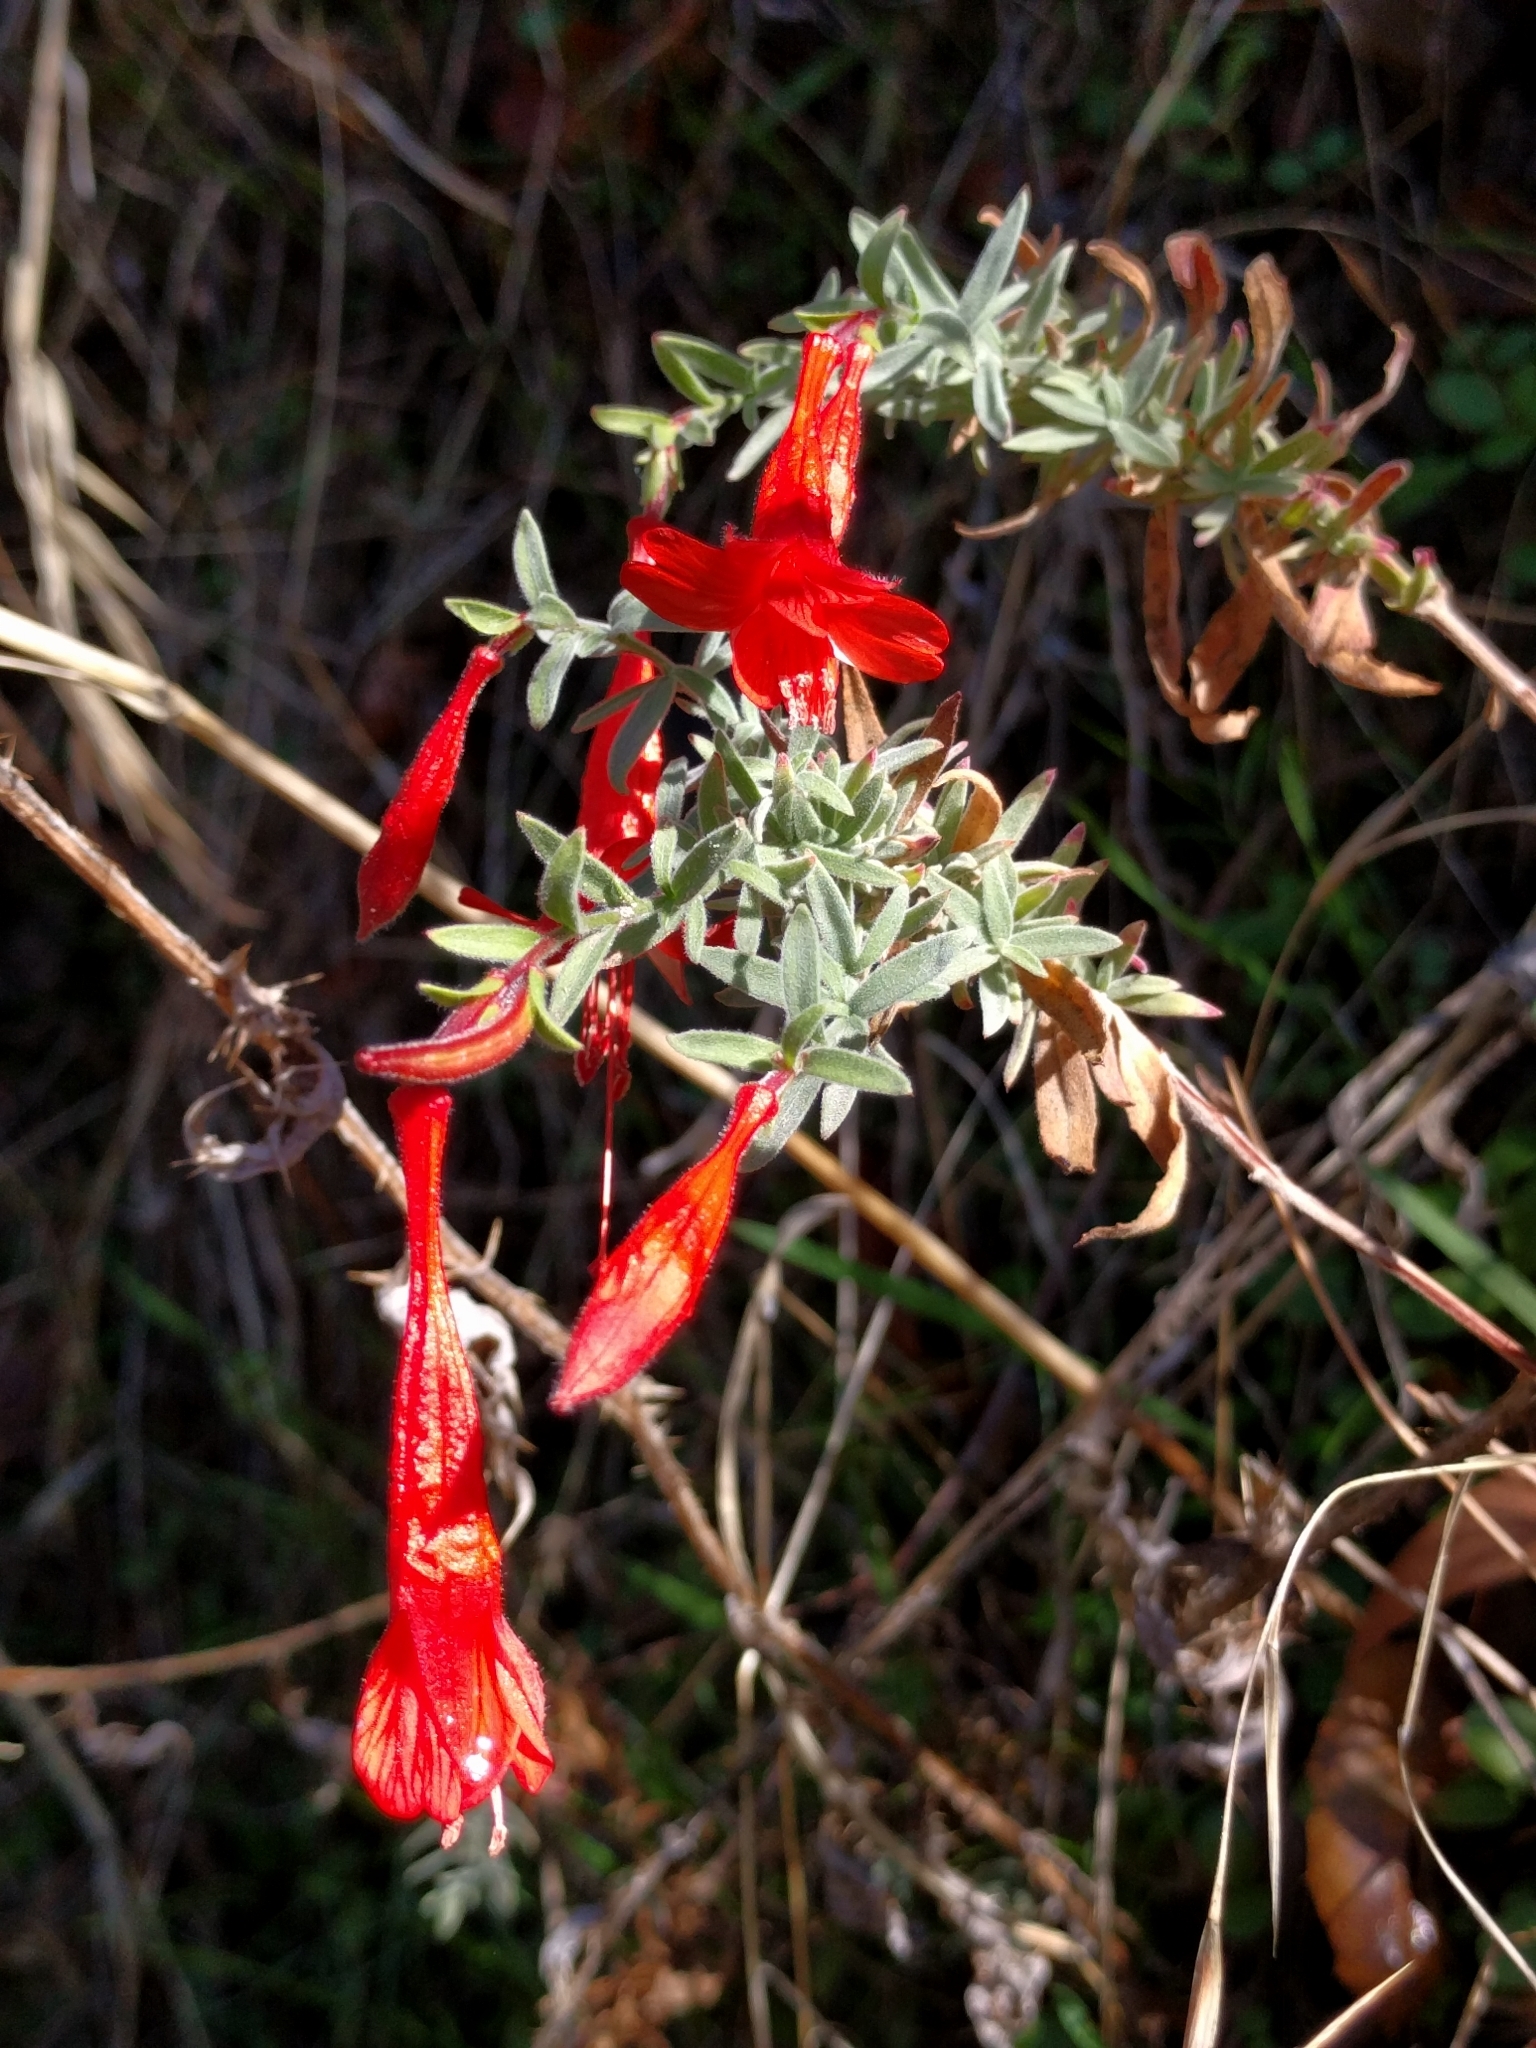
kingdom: Plantae
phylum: Tracheophyta
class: Magnoliopsida
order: Myrtales
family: Onagraceae
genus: Epilobium
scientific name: Epilobium canum
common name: California-fuchsia
